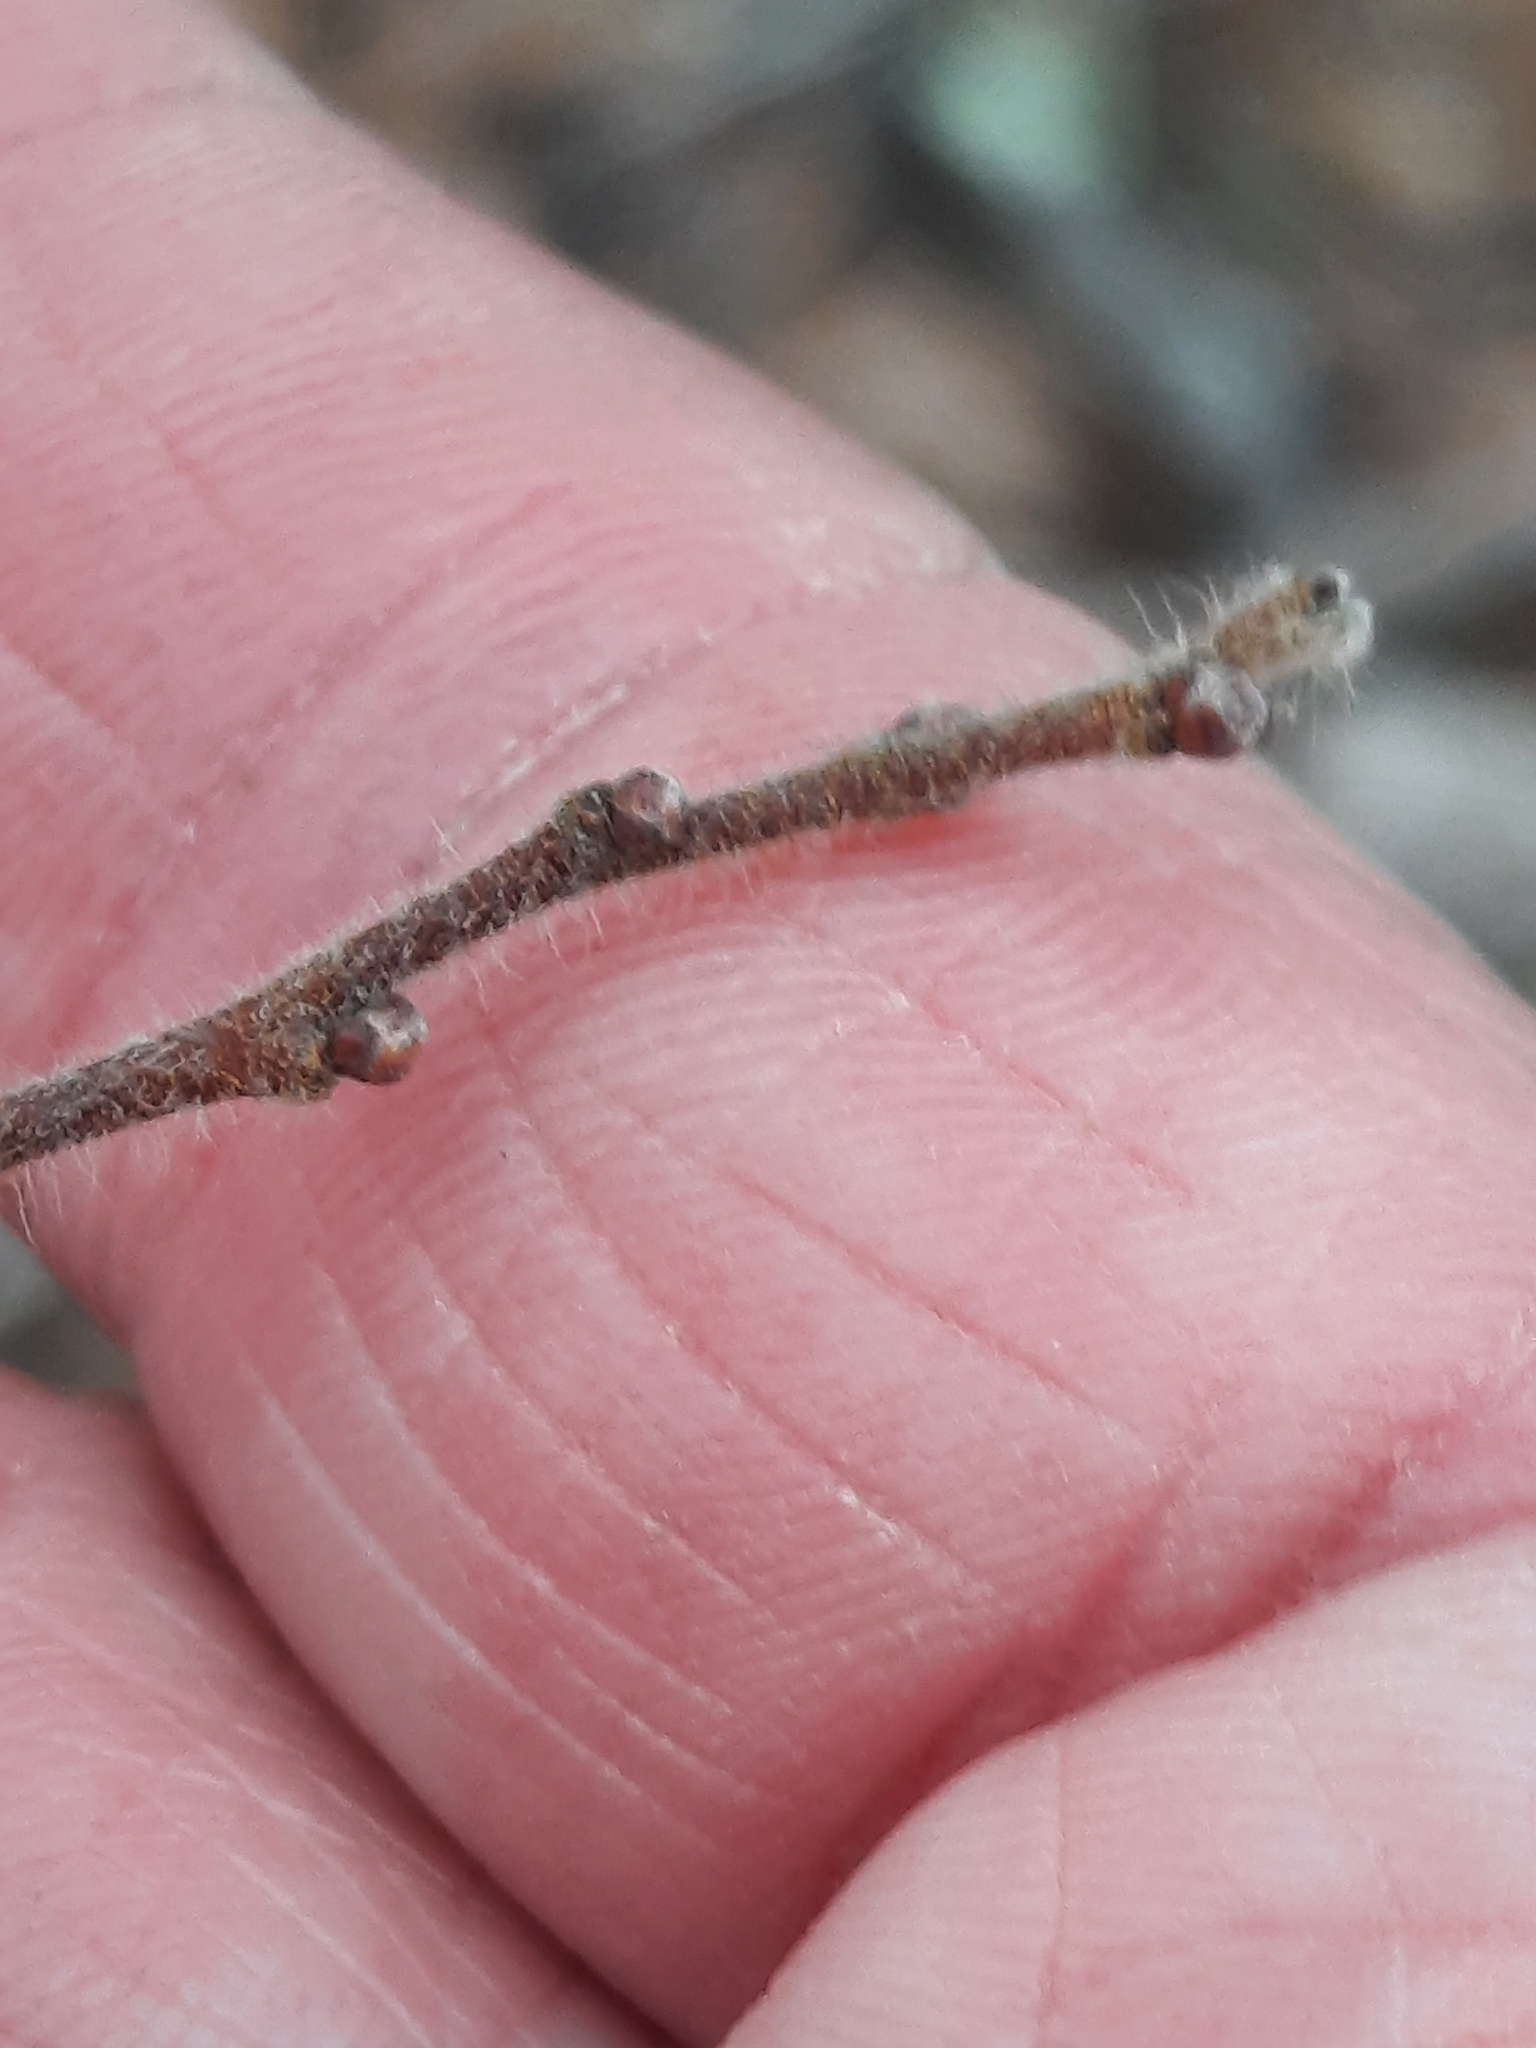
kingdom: Plantae
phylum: Tracheophyta
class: Magnoliopsida
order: Fagales
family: Myricaceae
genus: Comptonia
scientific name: Comptonia peregrina
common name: Sweet-fern
